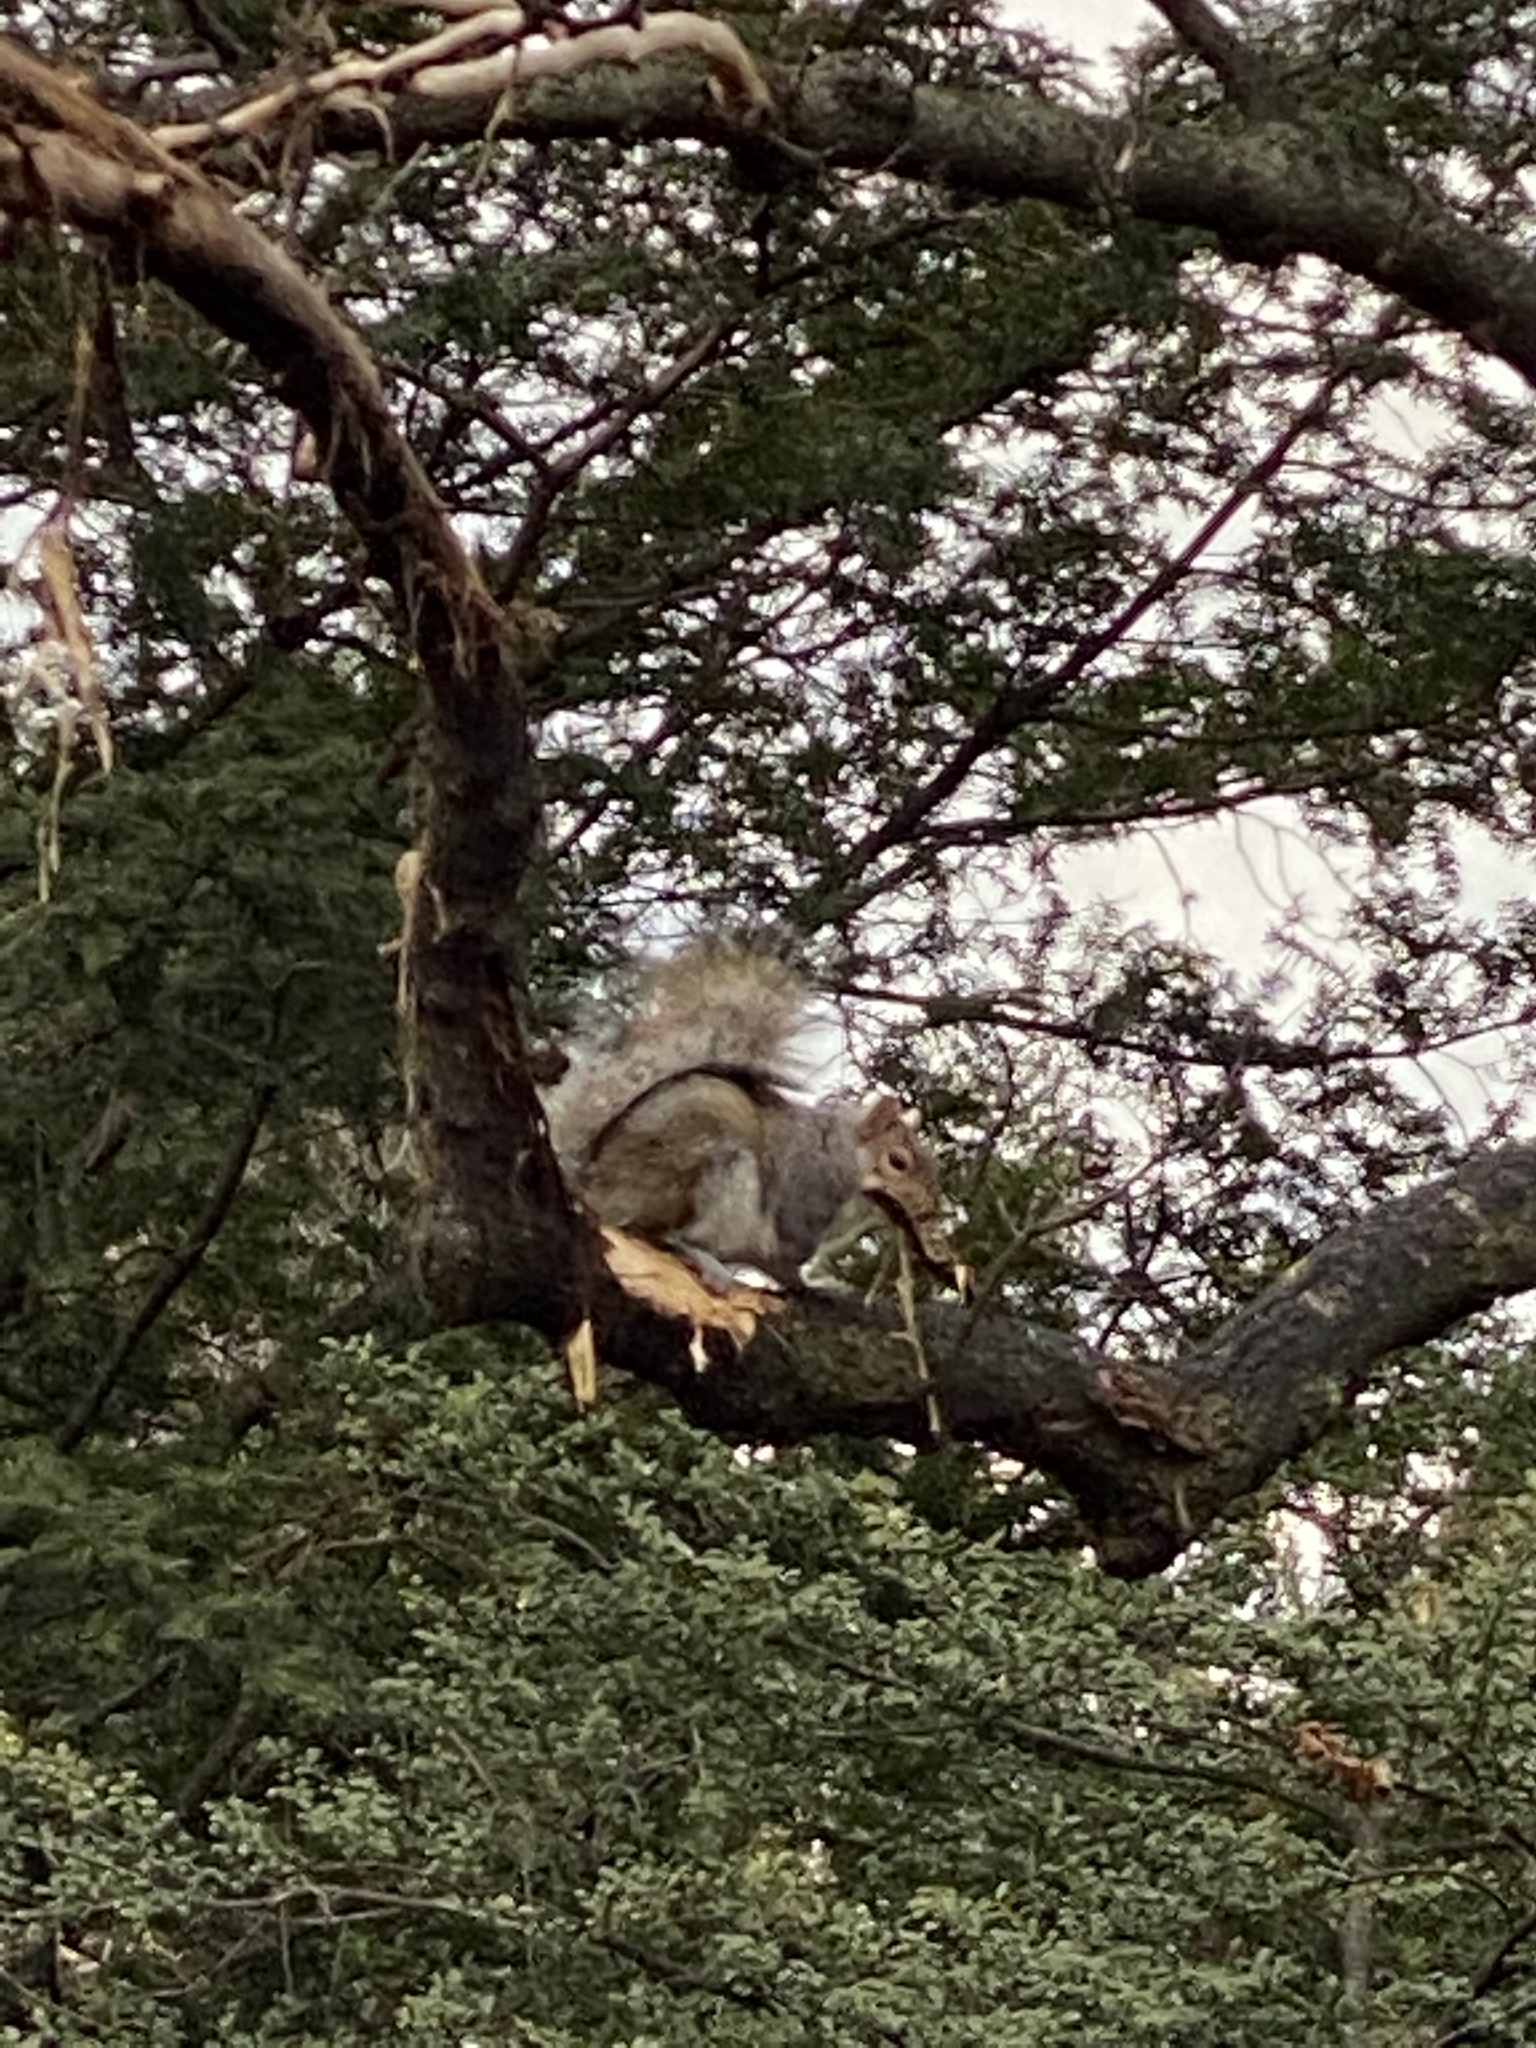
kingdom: Animalia
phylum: Chordata
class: Mammalia
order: Rodentia
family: Sciuridae
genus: Sciurus
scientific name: Sciurus carolinensis
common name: Eastern gray squirrel
